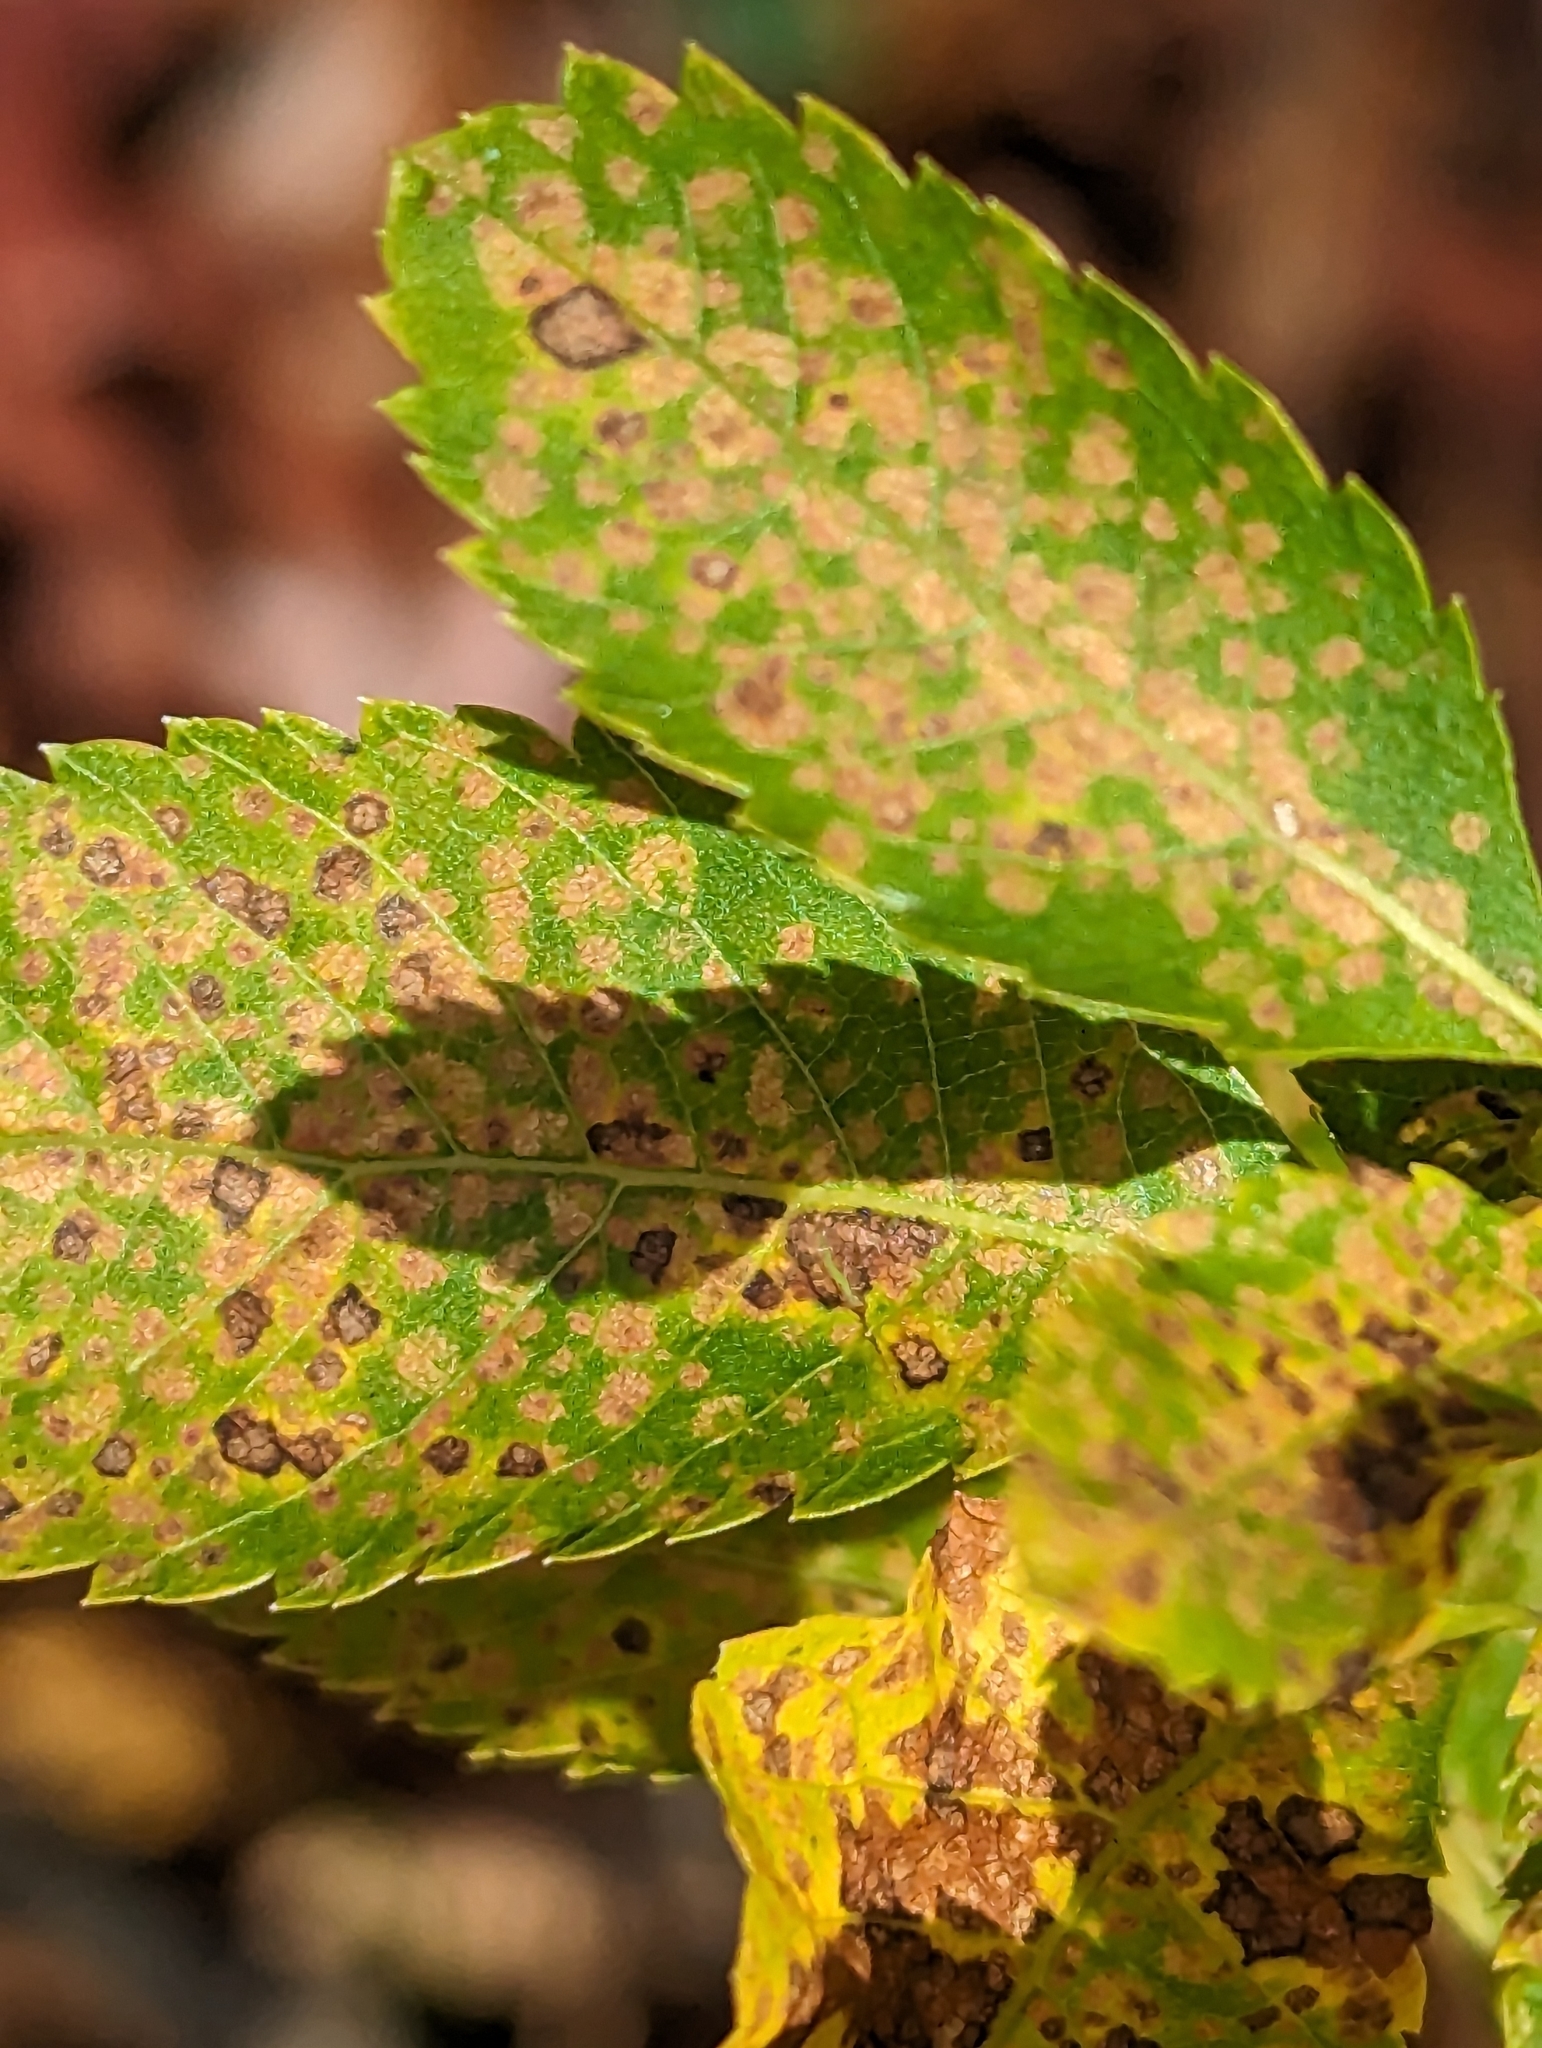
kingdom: Plantae
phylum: Tracheophyta
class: Magnoliopsida
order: Rosales
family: Rosaceae
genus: Spiraea
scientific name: Spiraea alba
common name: Pale bridewort
